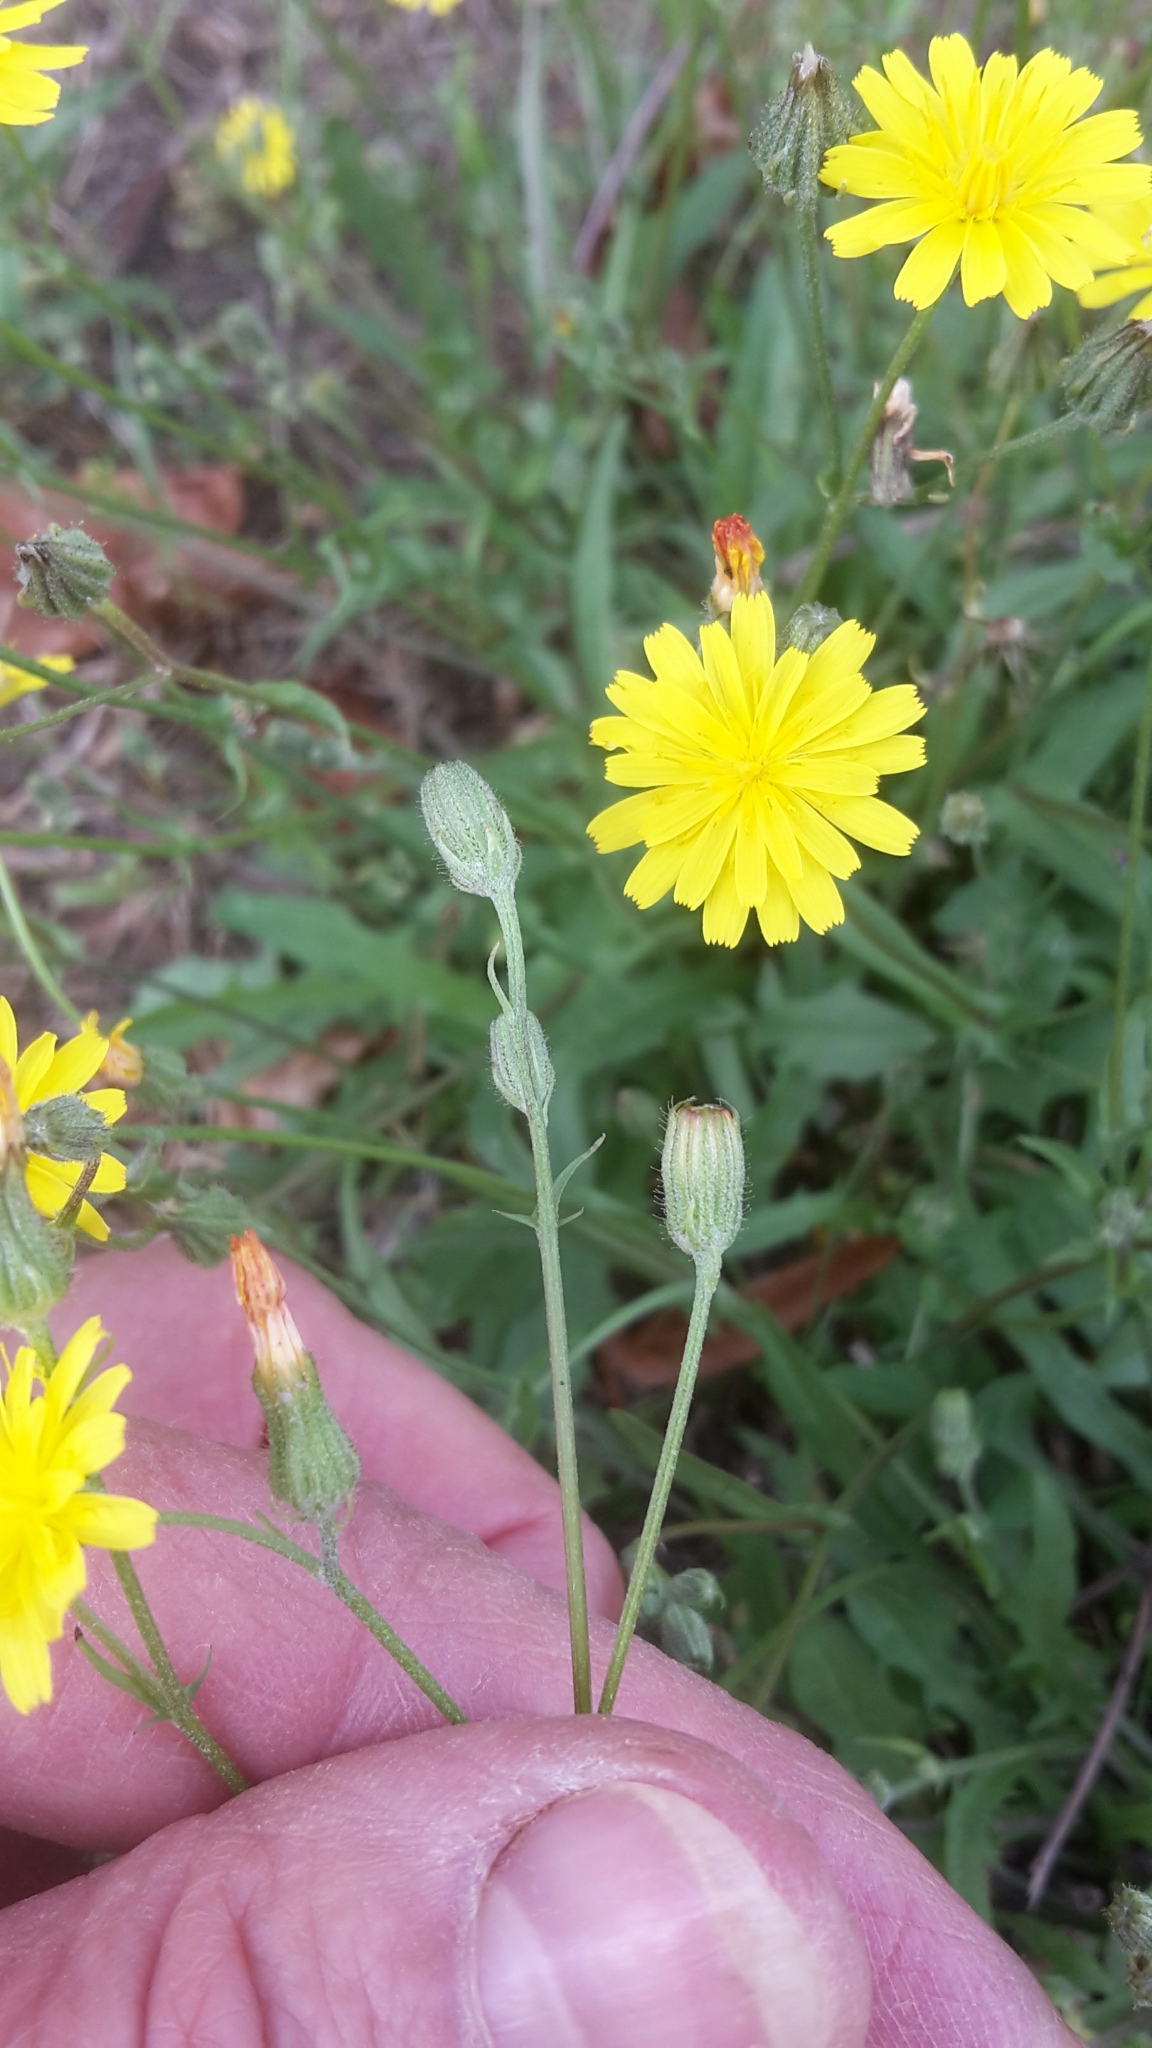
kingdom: Plantae
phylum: Tracheophyta
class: Magnoliopsida
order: Asterales
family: Asteraceae
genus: Crepis
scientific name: Crepis capillaris
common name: Smooth hawksbeard
